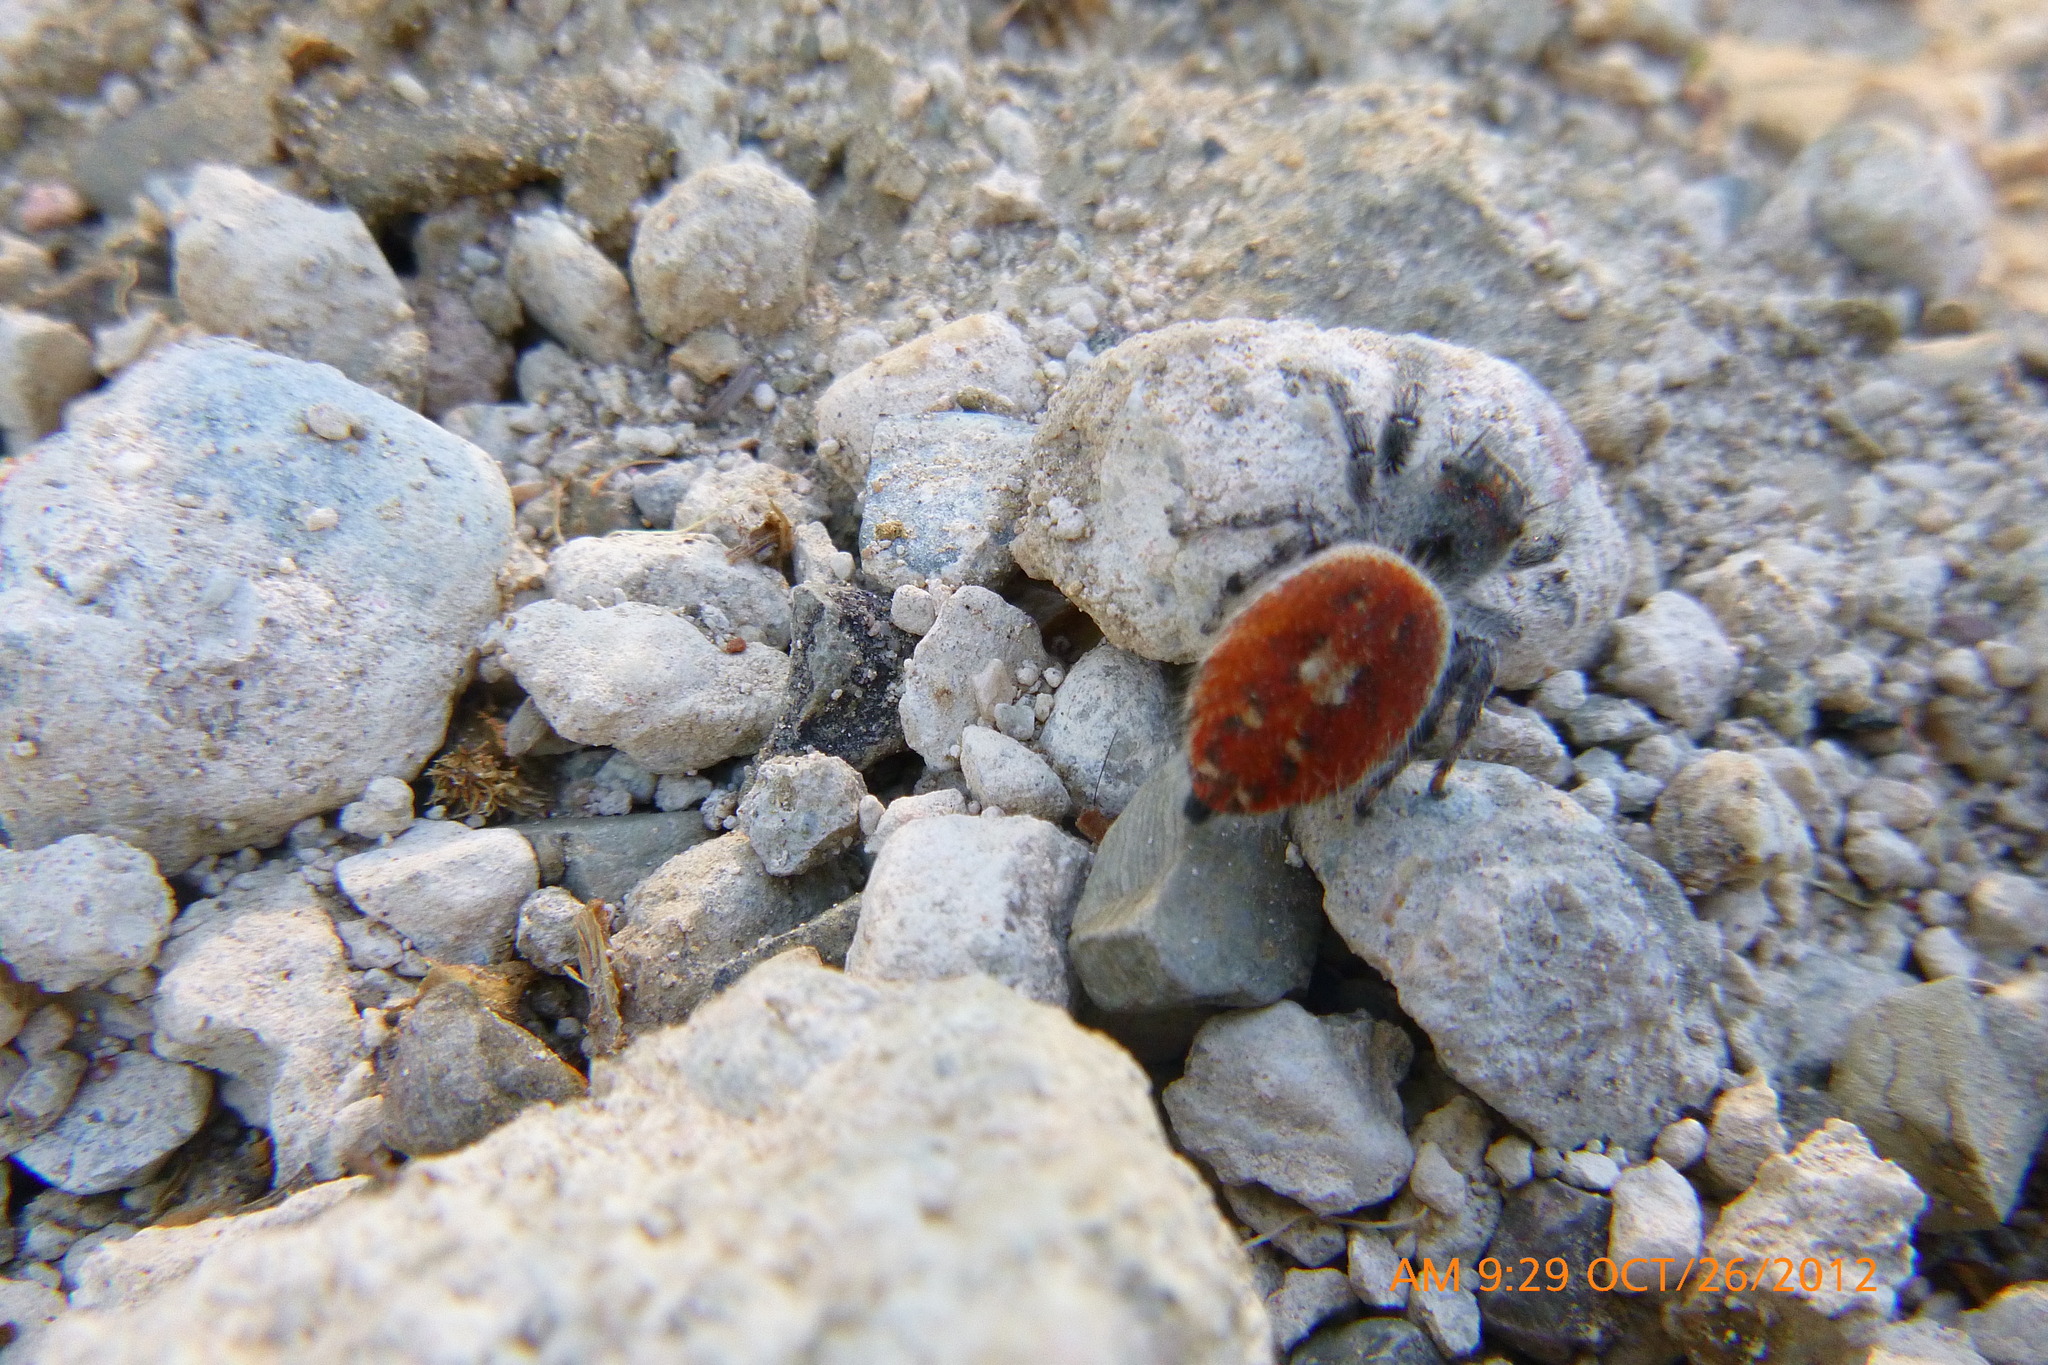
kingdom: Animalia
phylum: Arthropoda
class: Arachnida
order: Araneae
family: Salticidae
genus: Phidippus
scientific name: Phidippus adumbratus
